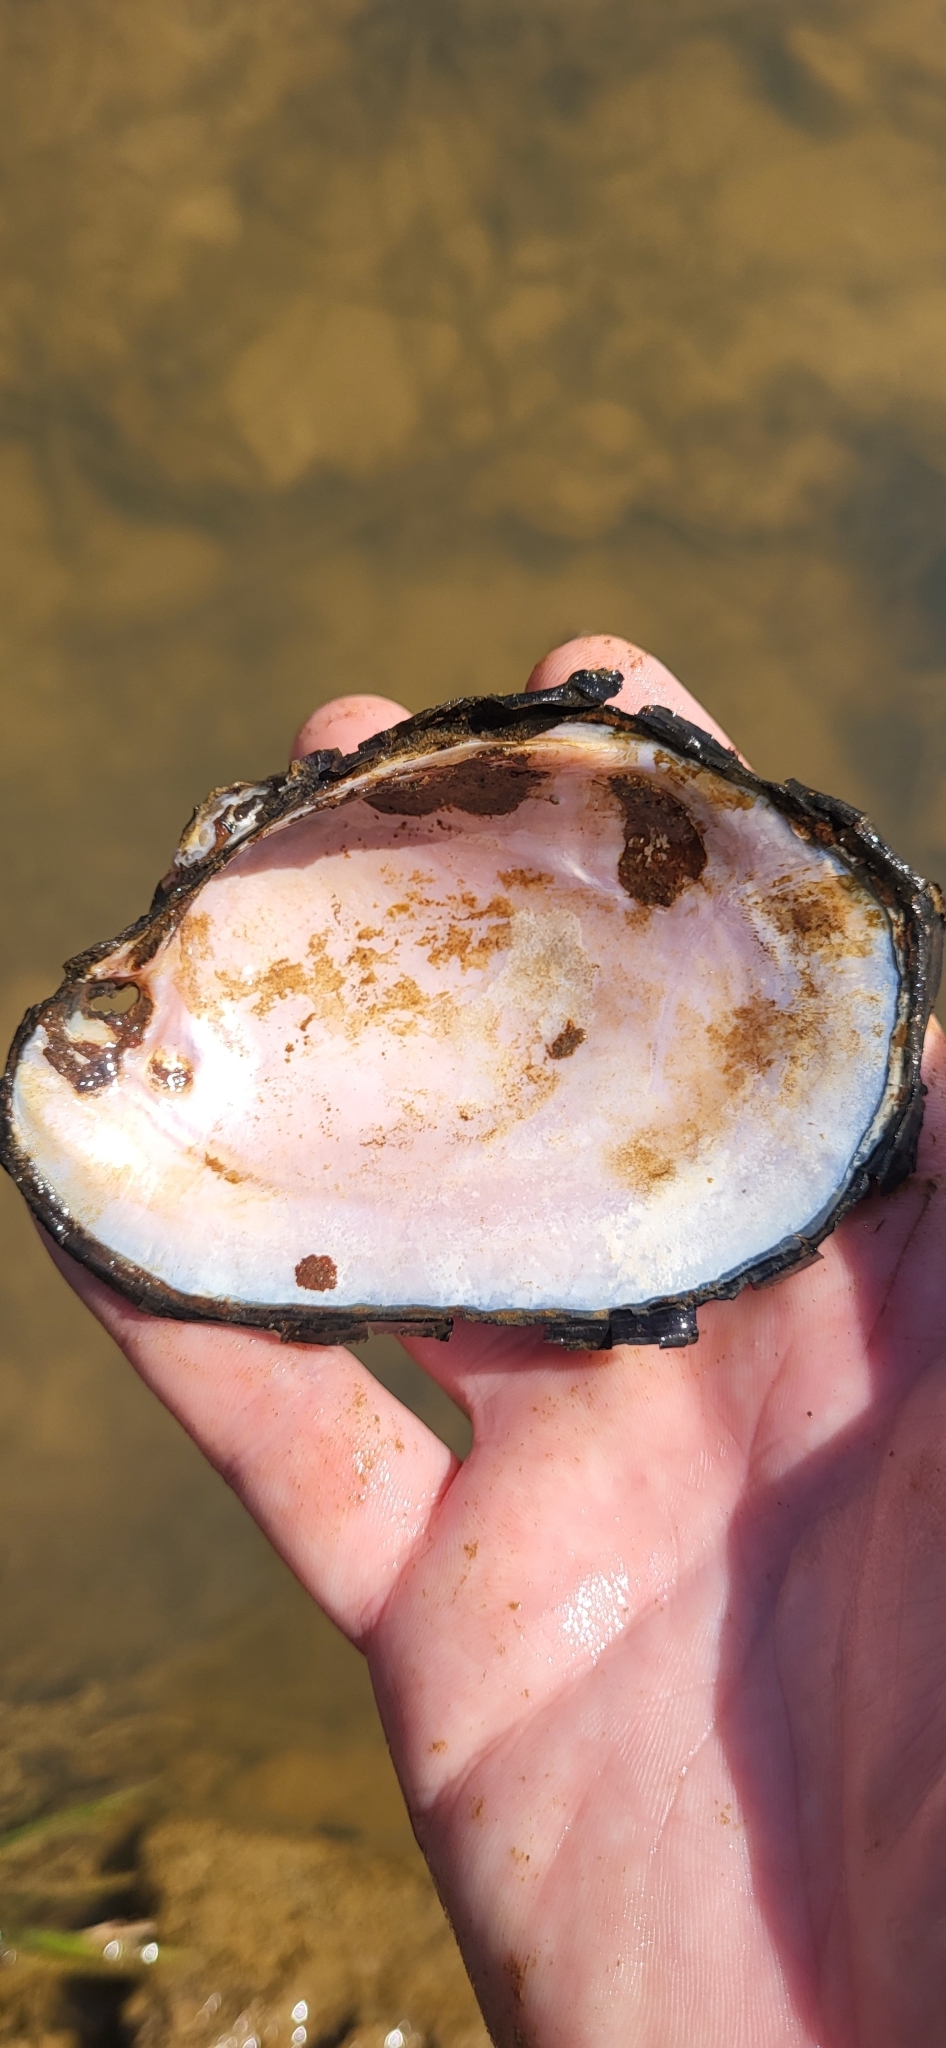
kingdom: Animalia
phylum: Mollusca
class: Bivalvia
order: Unionida
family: Unionidae
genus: Potamilus
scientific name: Potamilus purpuratus
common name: Bleufer
